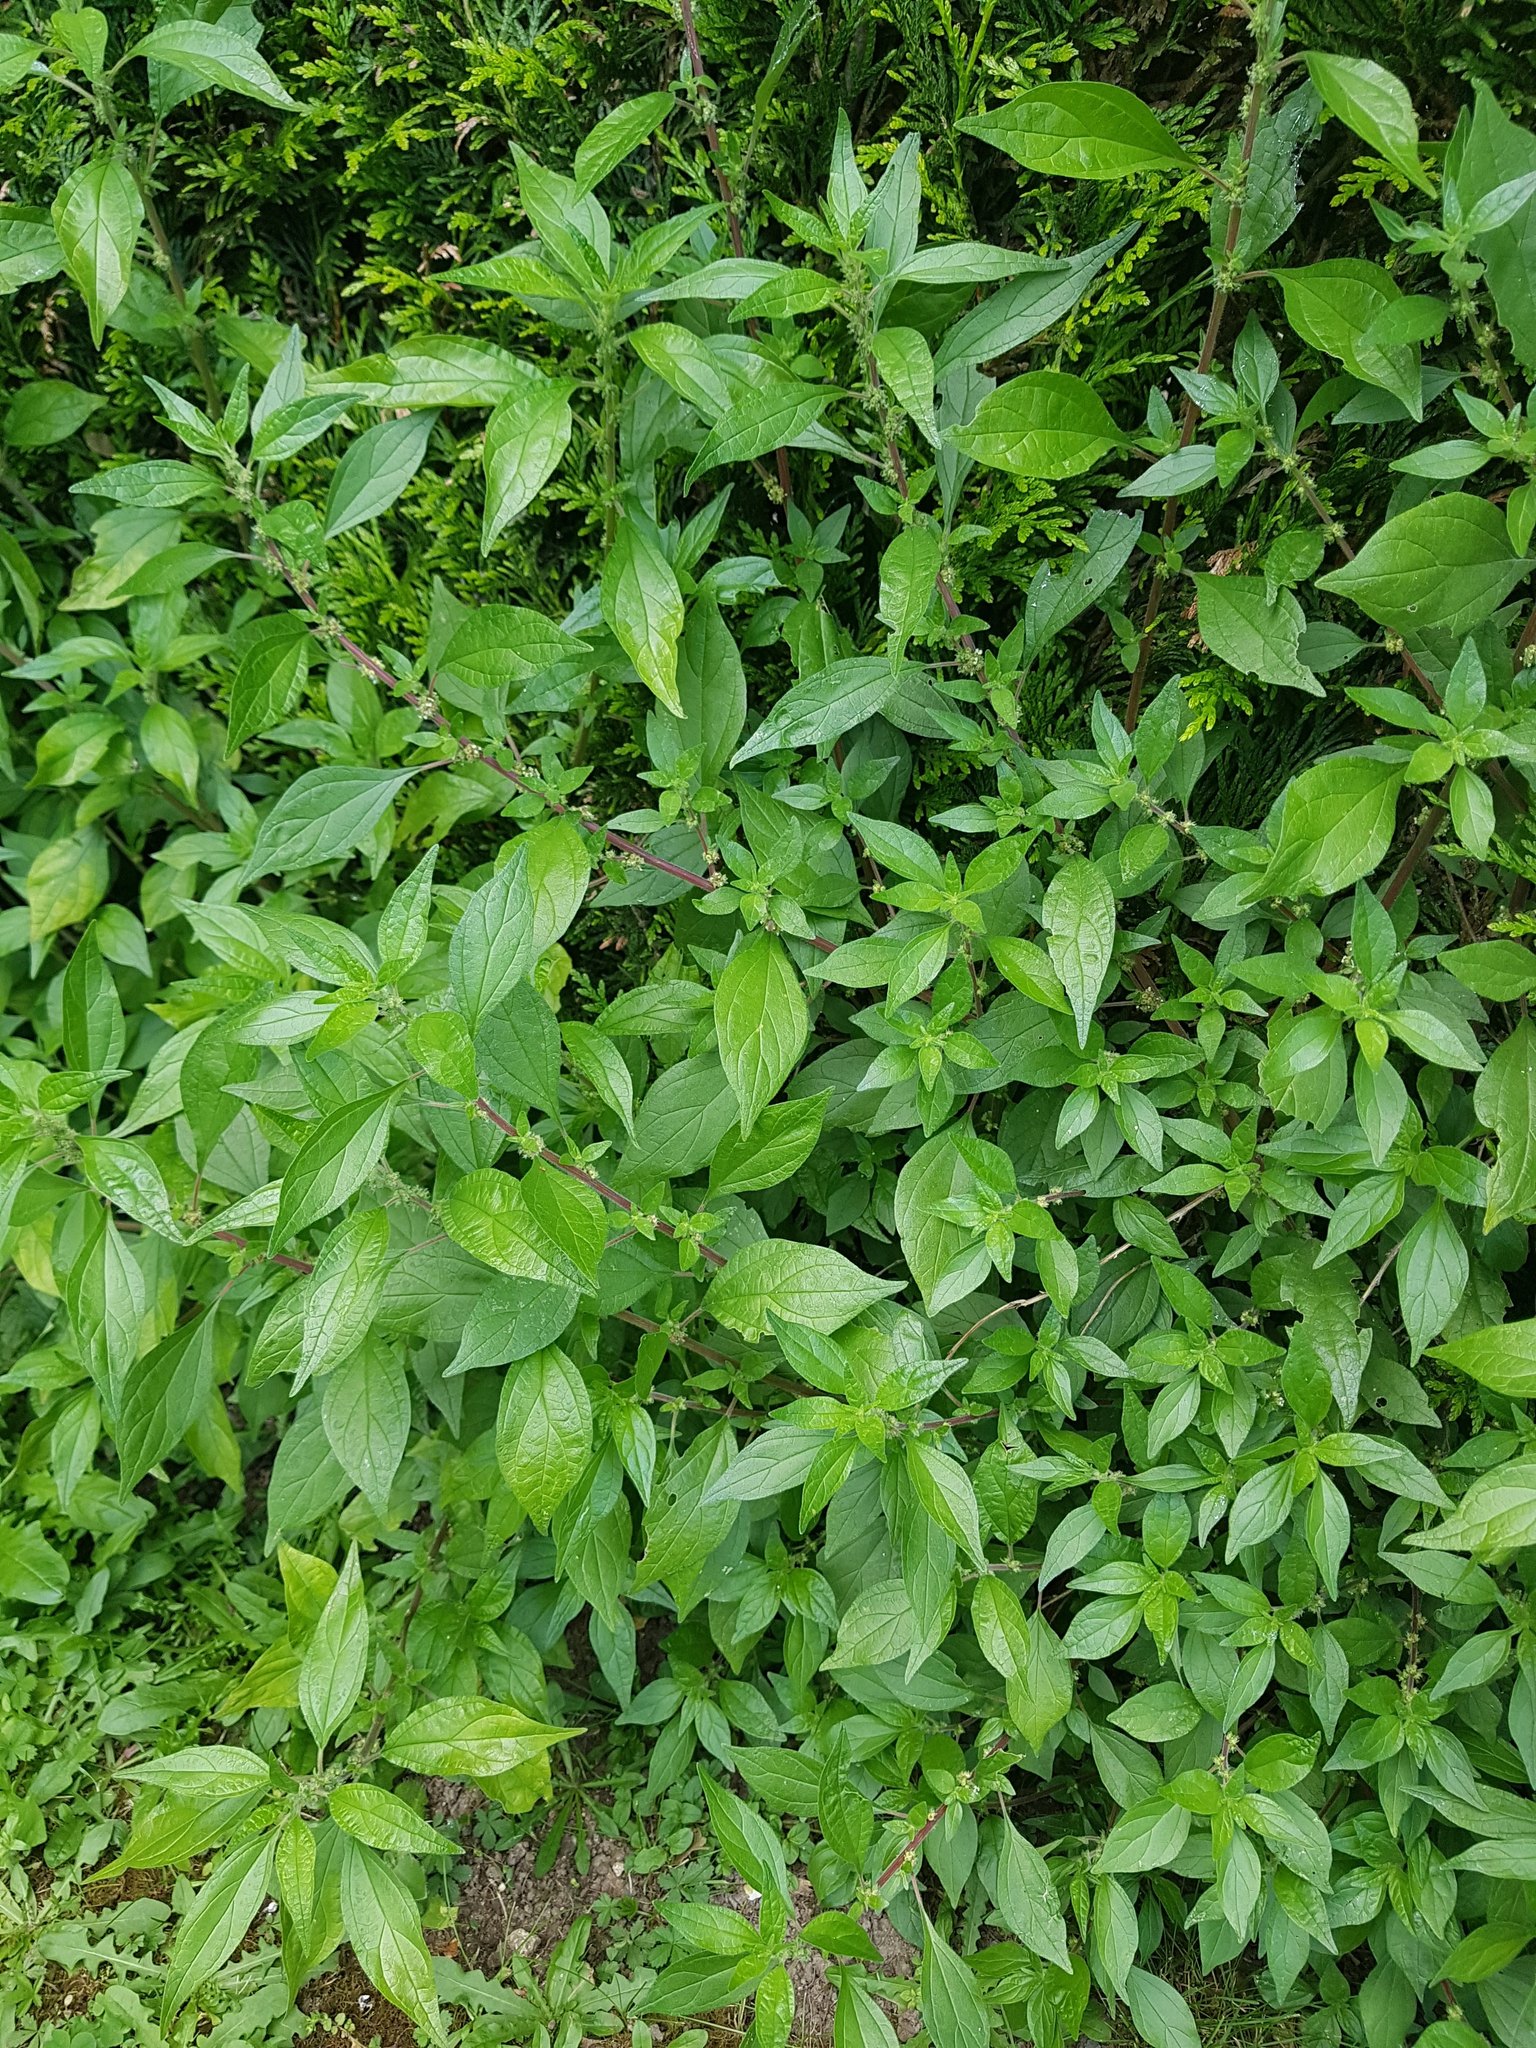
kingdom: Plantae
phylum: Tracheophyta
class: Magnoliopsida
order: Rosales
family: Urticaceae
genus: Parietaria
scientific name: Parietaria officinalis
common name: Eastern pellitory-of-the-wall
